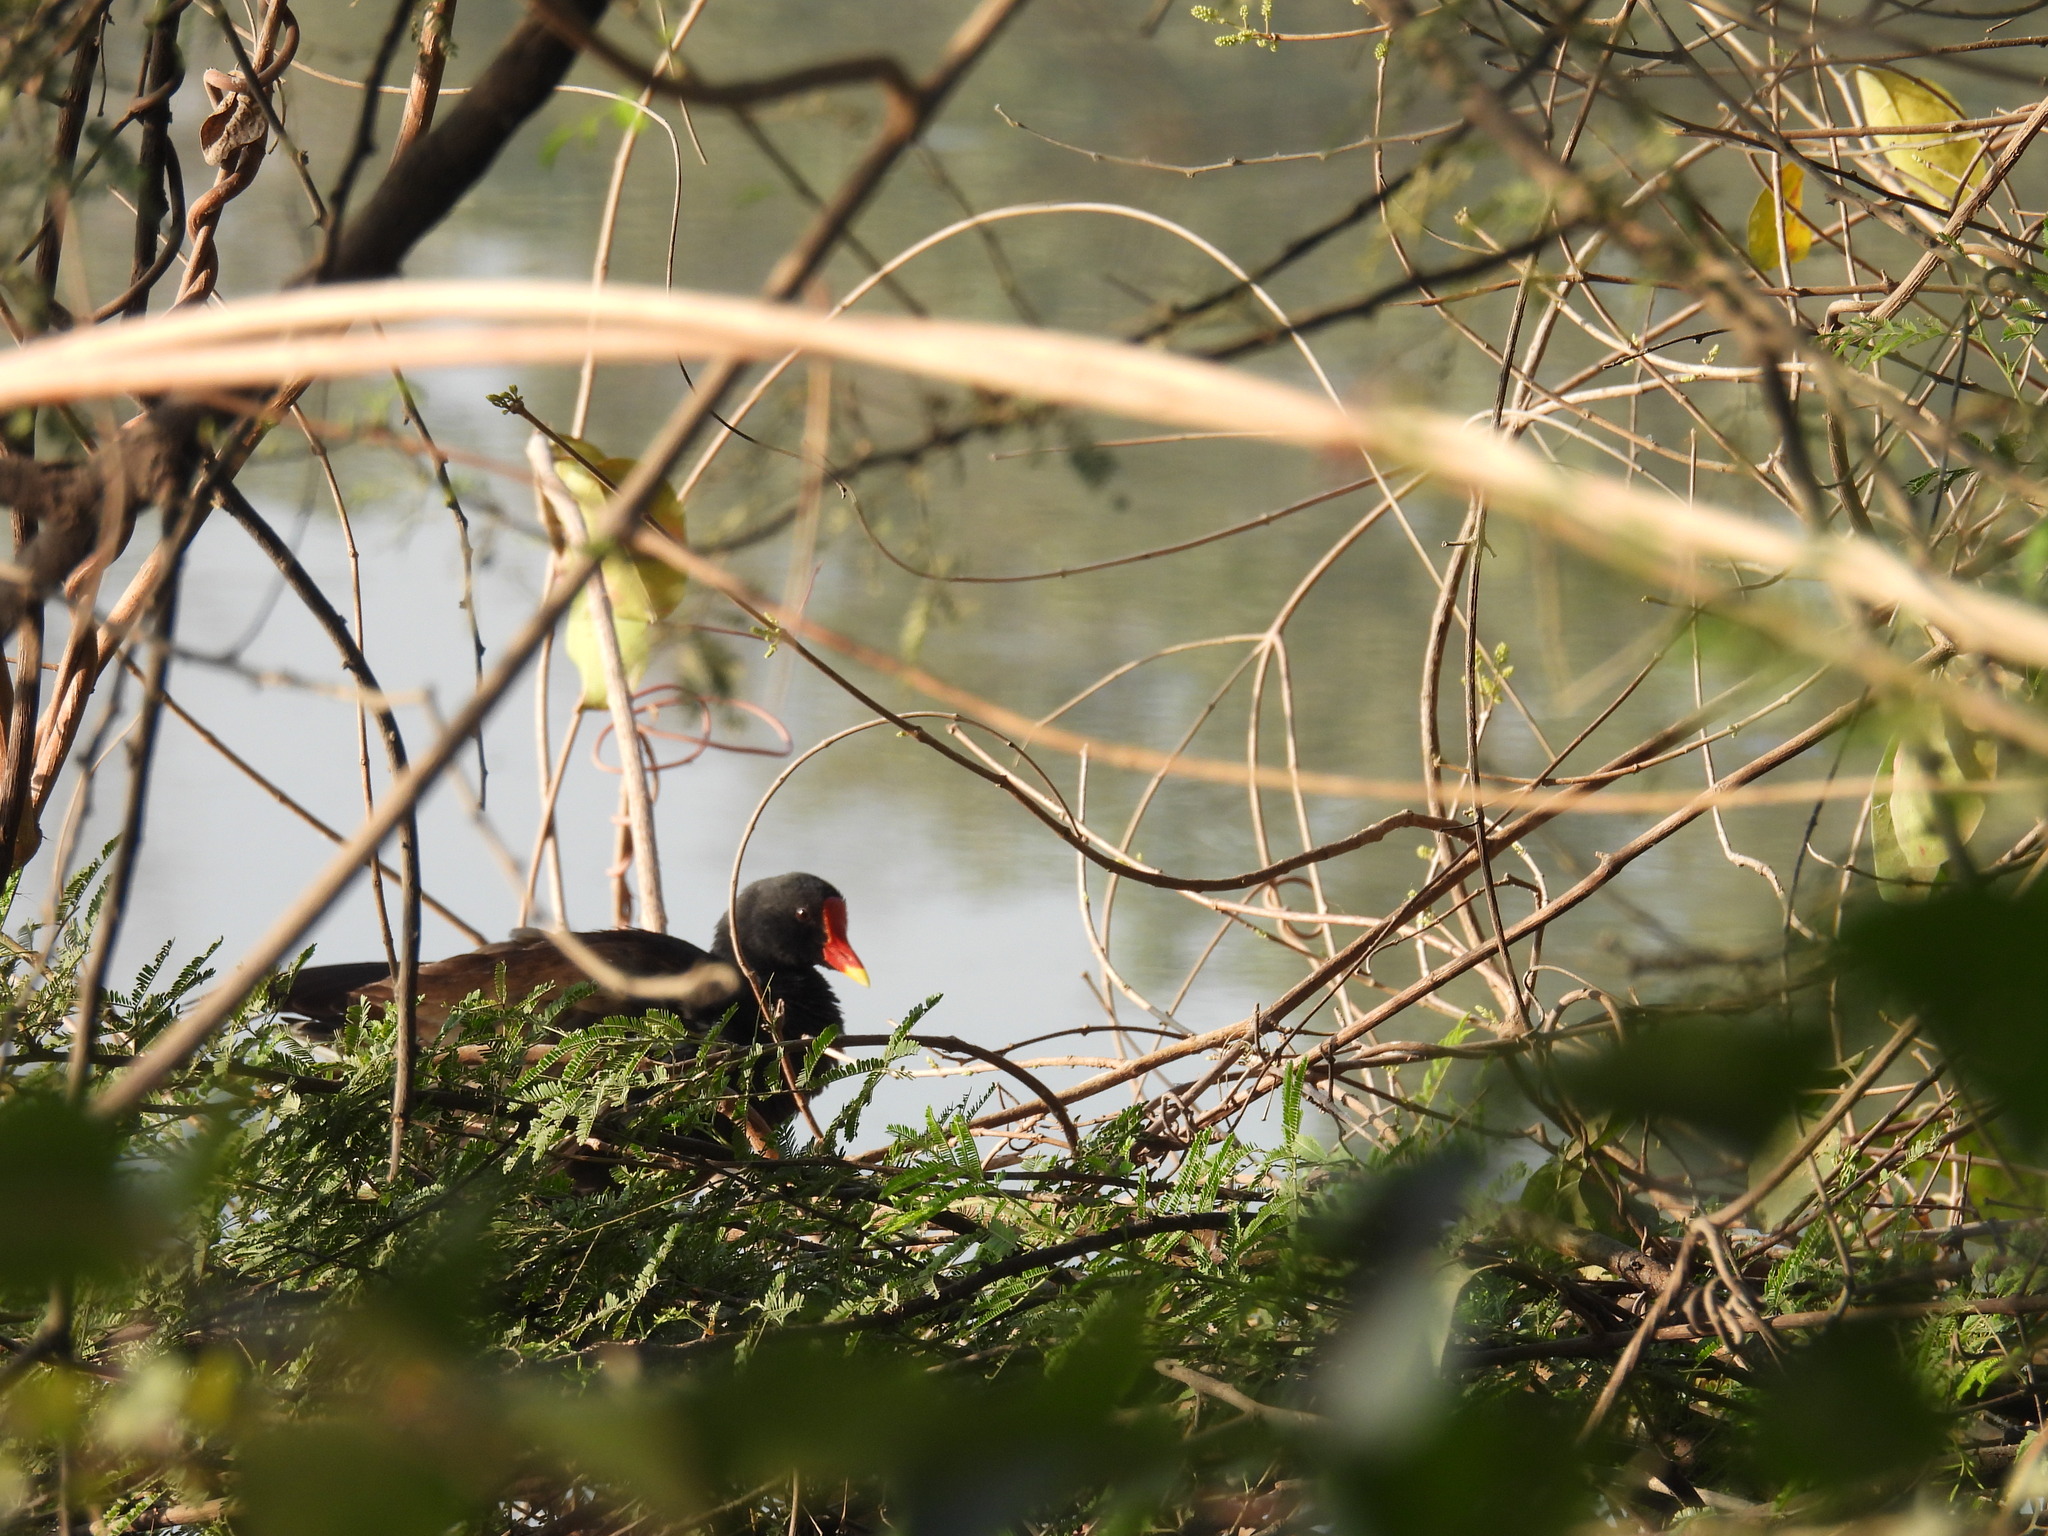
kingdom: Animalia
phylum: Chordata
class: Aves
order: Gruiformes
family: Rallidae
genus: Gallinula
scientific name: Gallinula chloropus
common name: Common moorhen
